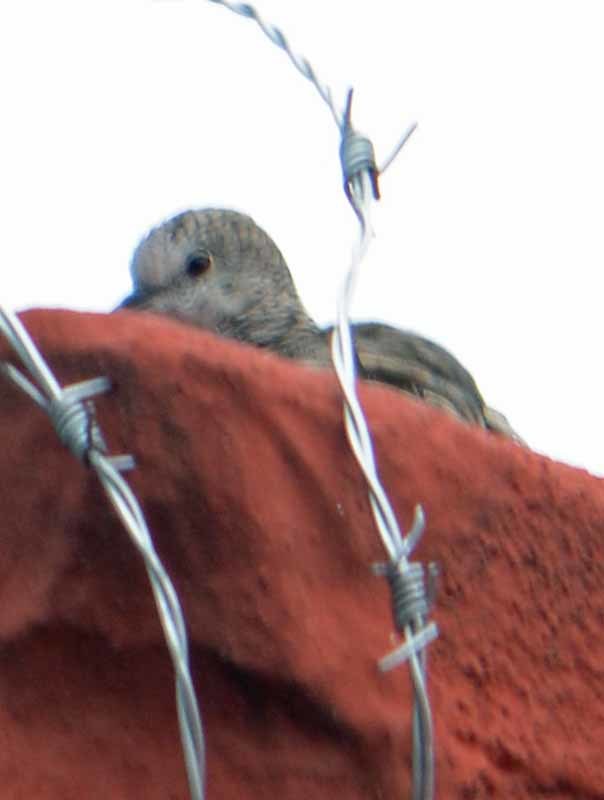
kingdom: Animalia
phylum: Chordata
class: Aves
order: Columbiformes
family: Columbidae
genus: Columbina
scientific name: Columbina inca
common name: Inca dove
